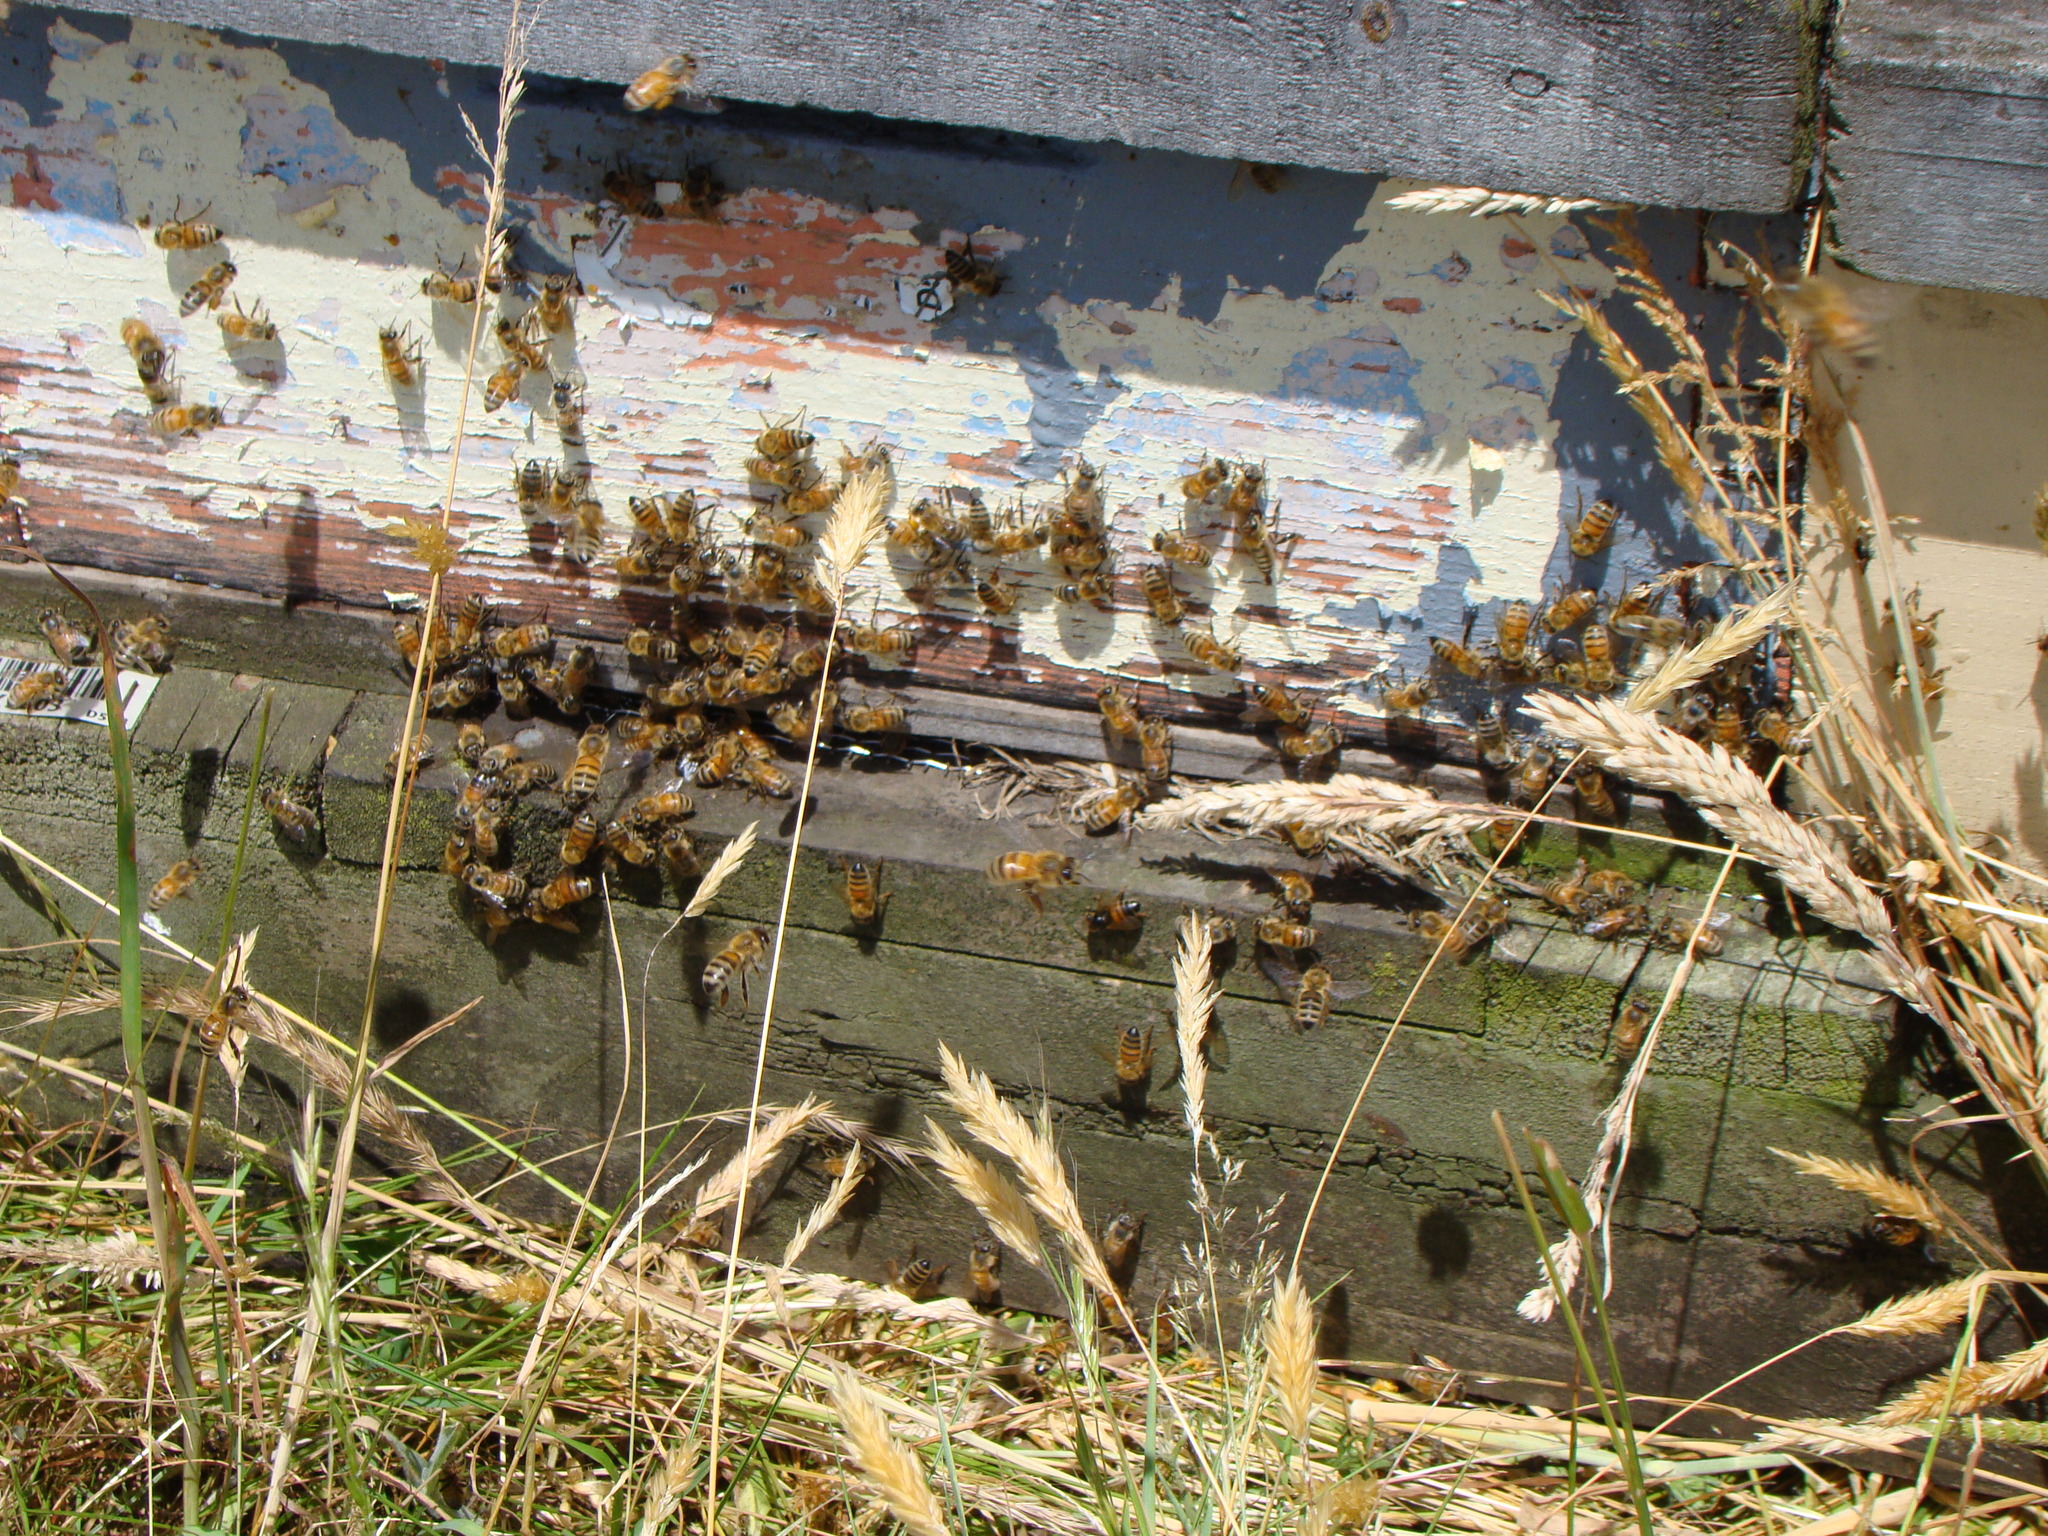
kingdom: Animalia
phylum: Arthropoda
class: Insecta
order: Hymenoptera
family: Apidae
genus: Apis
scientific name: Apis mellifera
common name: Honey bee
